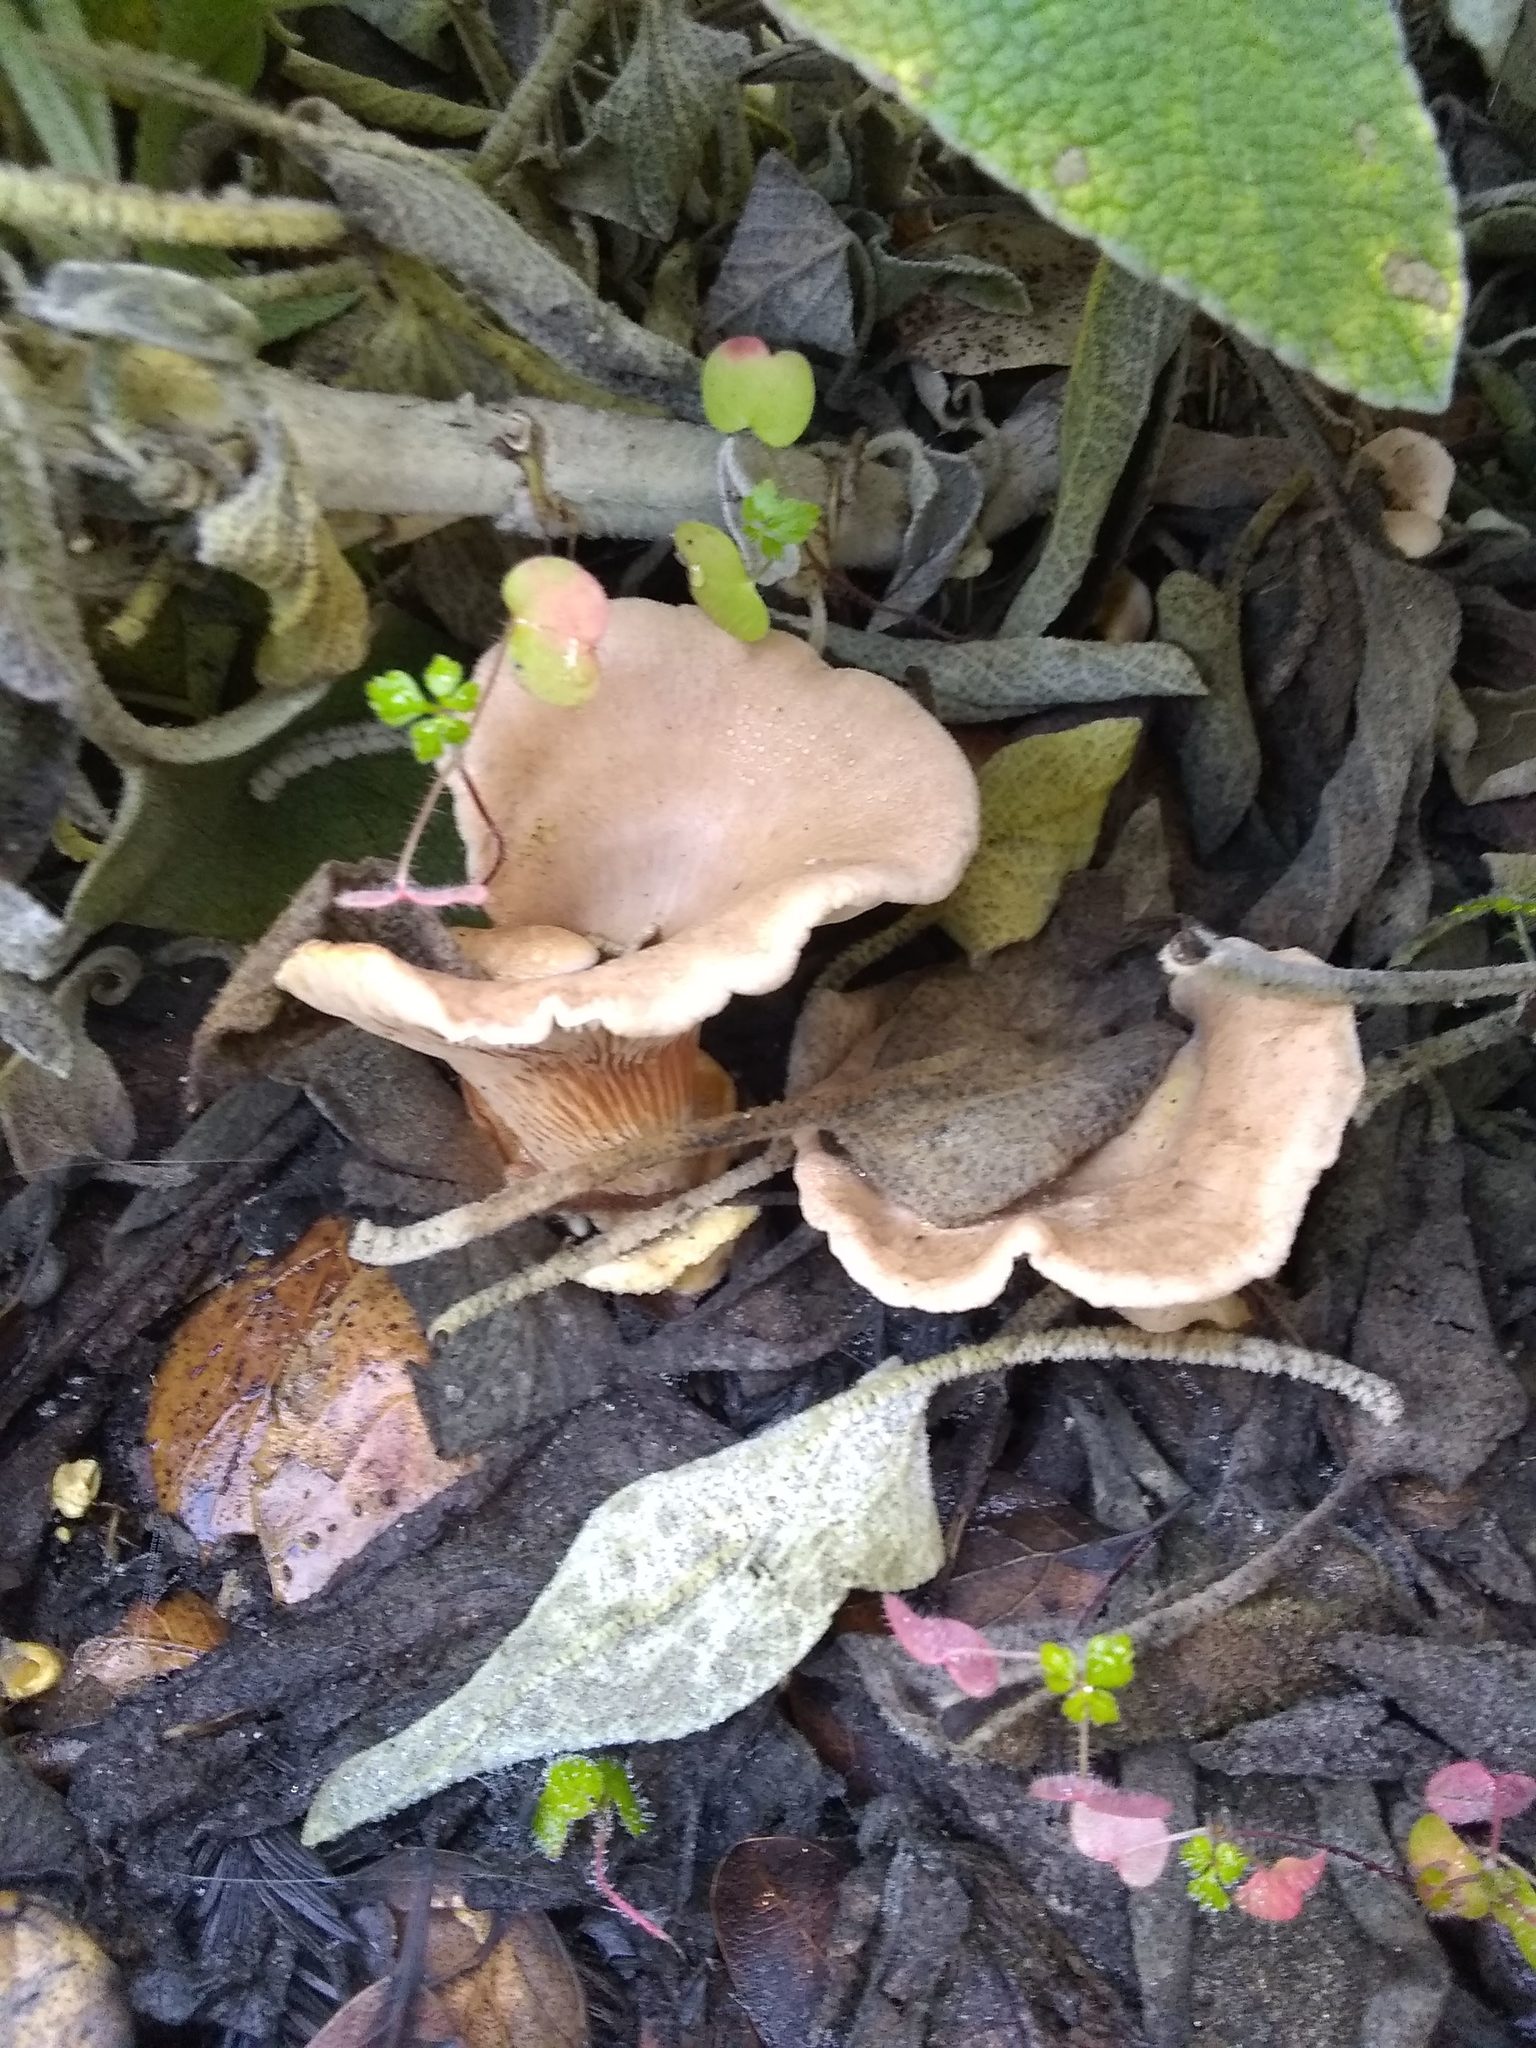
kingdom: Fungi
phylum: Basidiomycota
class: Agaricomycetes
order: Polyporales
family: Panaceae
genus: Panus
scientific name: Panus conchatus
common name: Lilac oysterling
